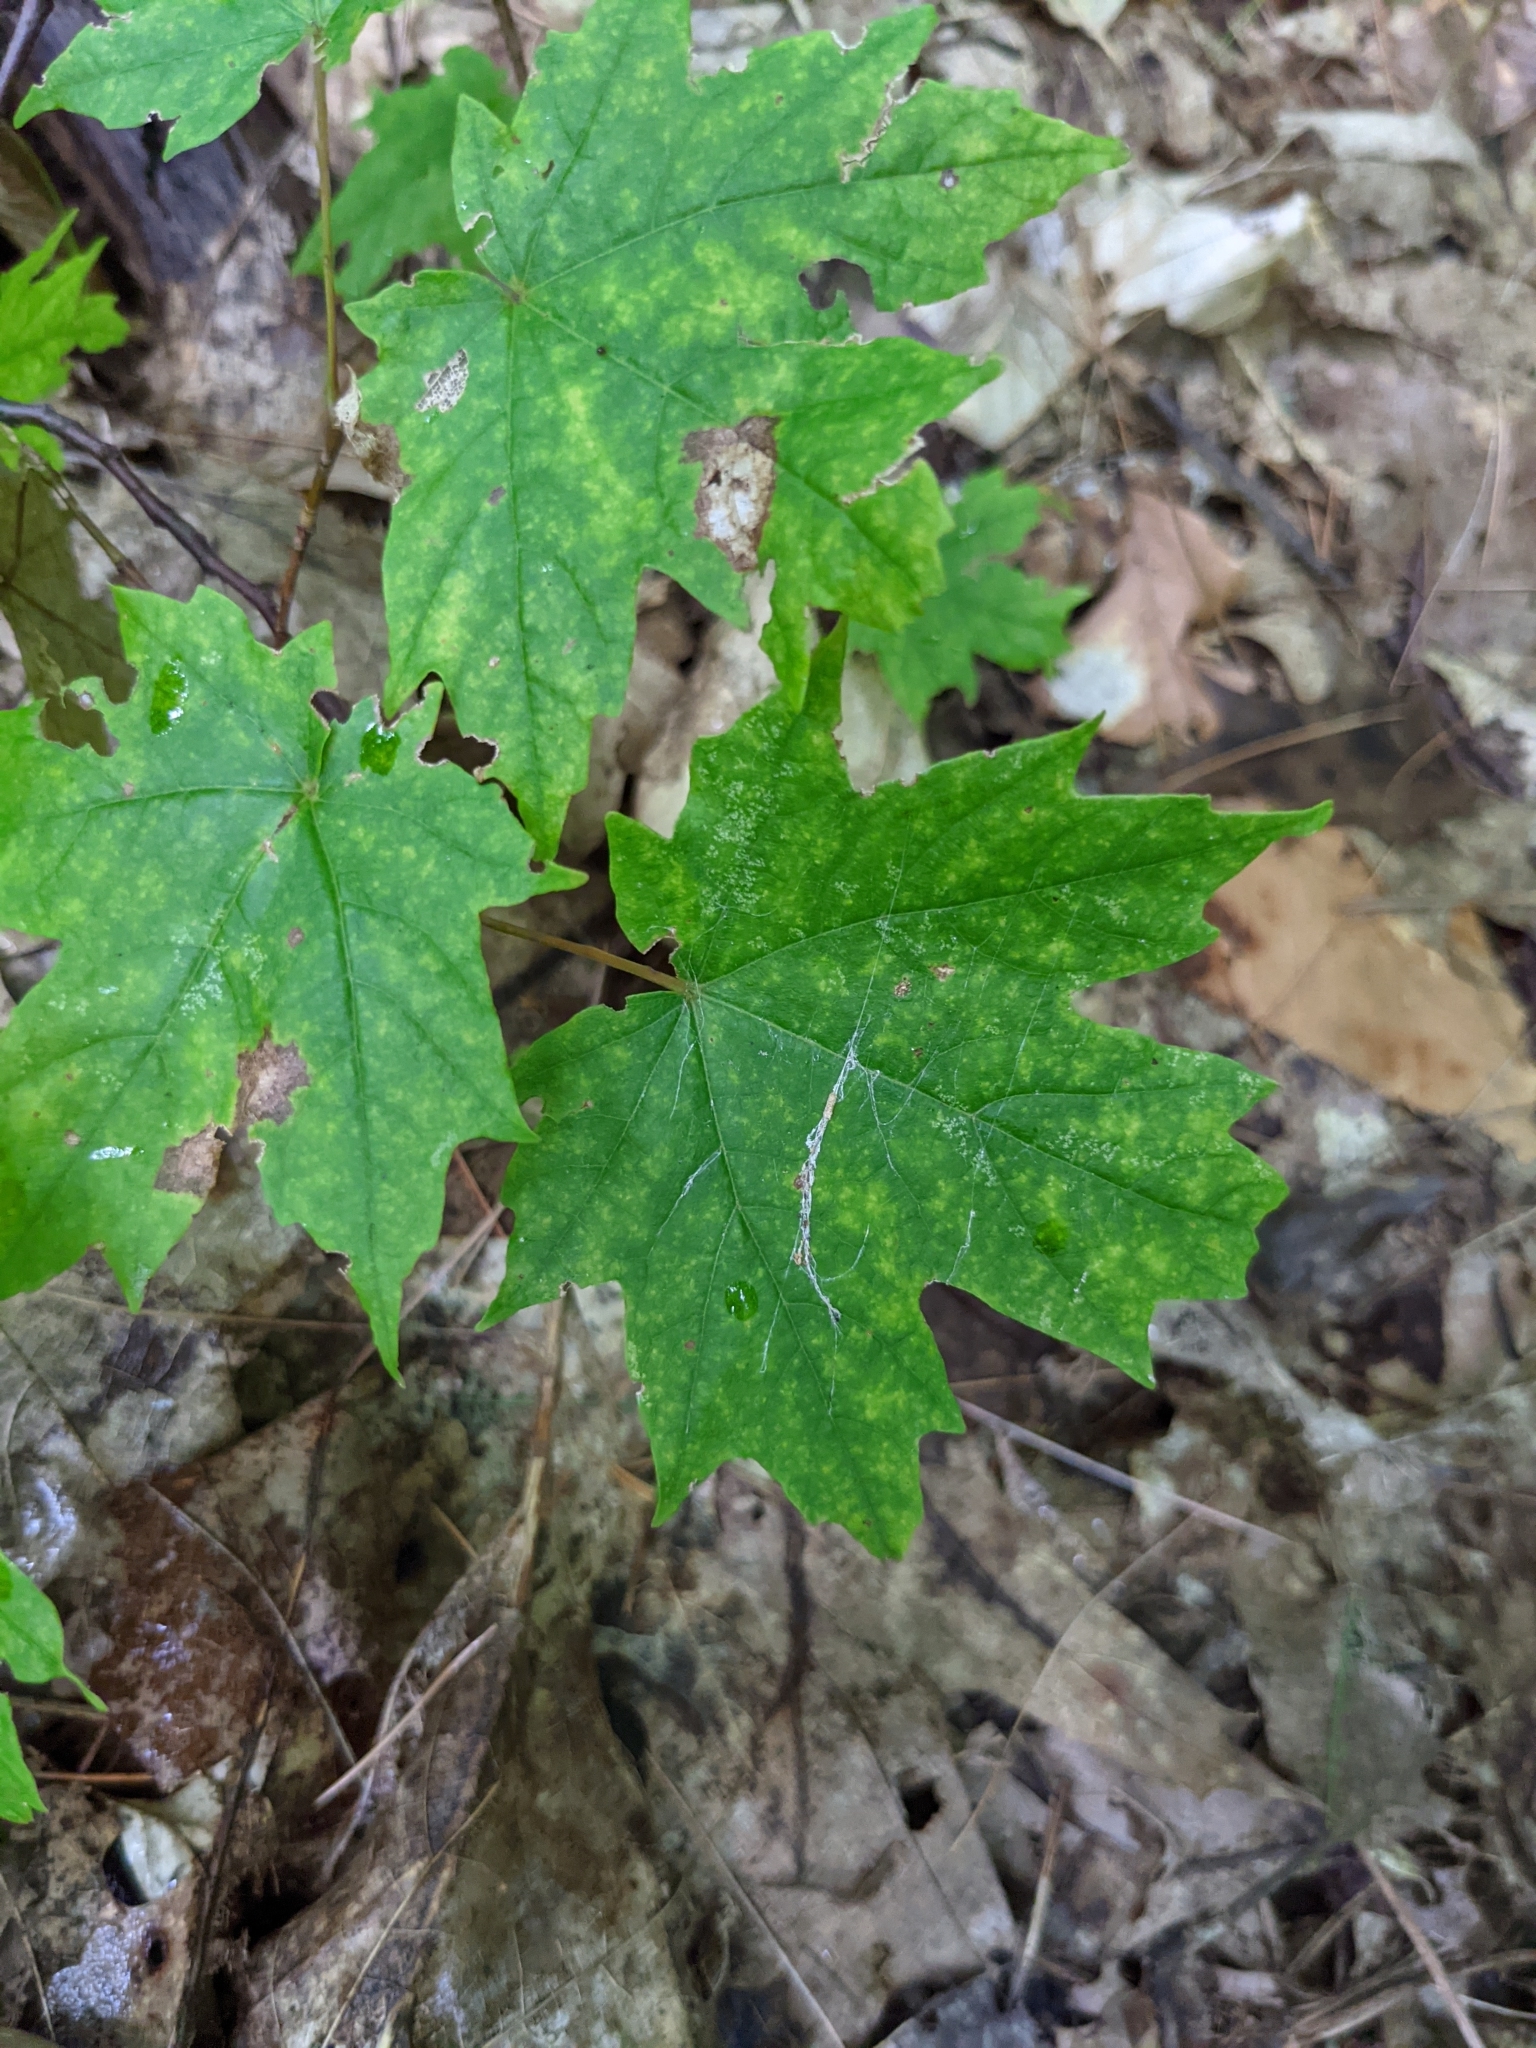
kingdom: Plantae
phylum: Tracheophyta
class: Magnoliopsida
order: Sapindales
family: Sapindaceae
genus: Acer
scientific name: Acer saccharum
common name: Sugar maple
